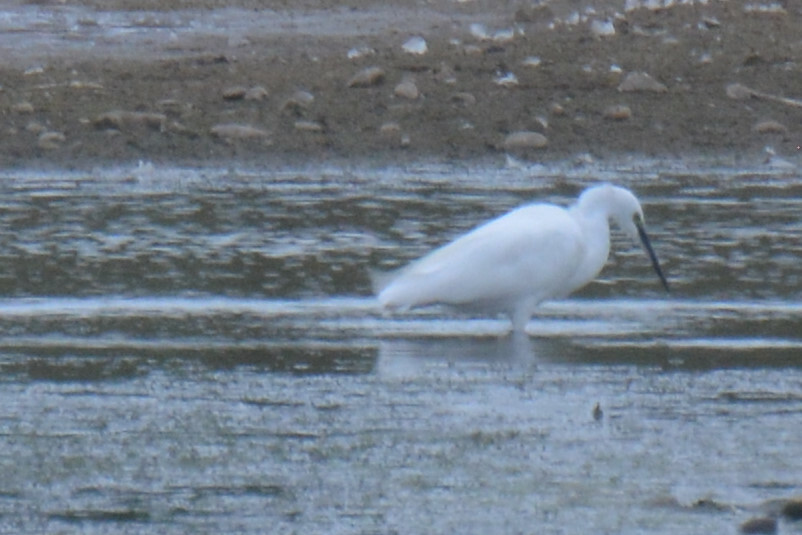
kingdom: Animalia
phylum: Chordata
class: Aves
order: Pelecaniformes
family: Ardeidae
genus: Egretta
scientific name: Egretta garzetta
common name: Little egret
